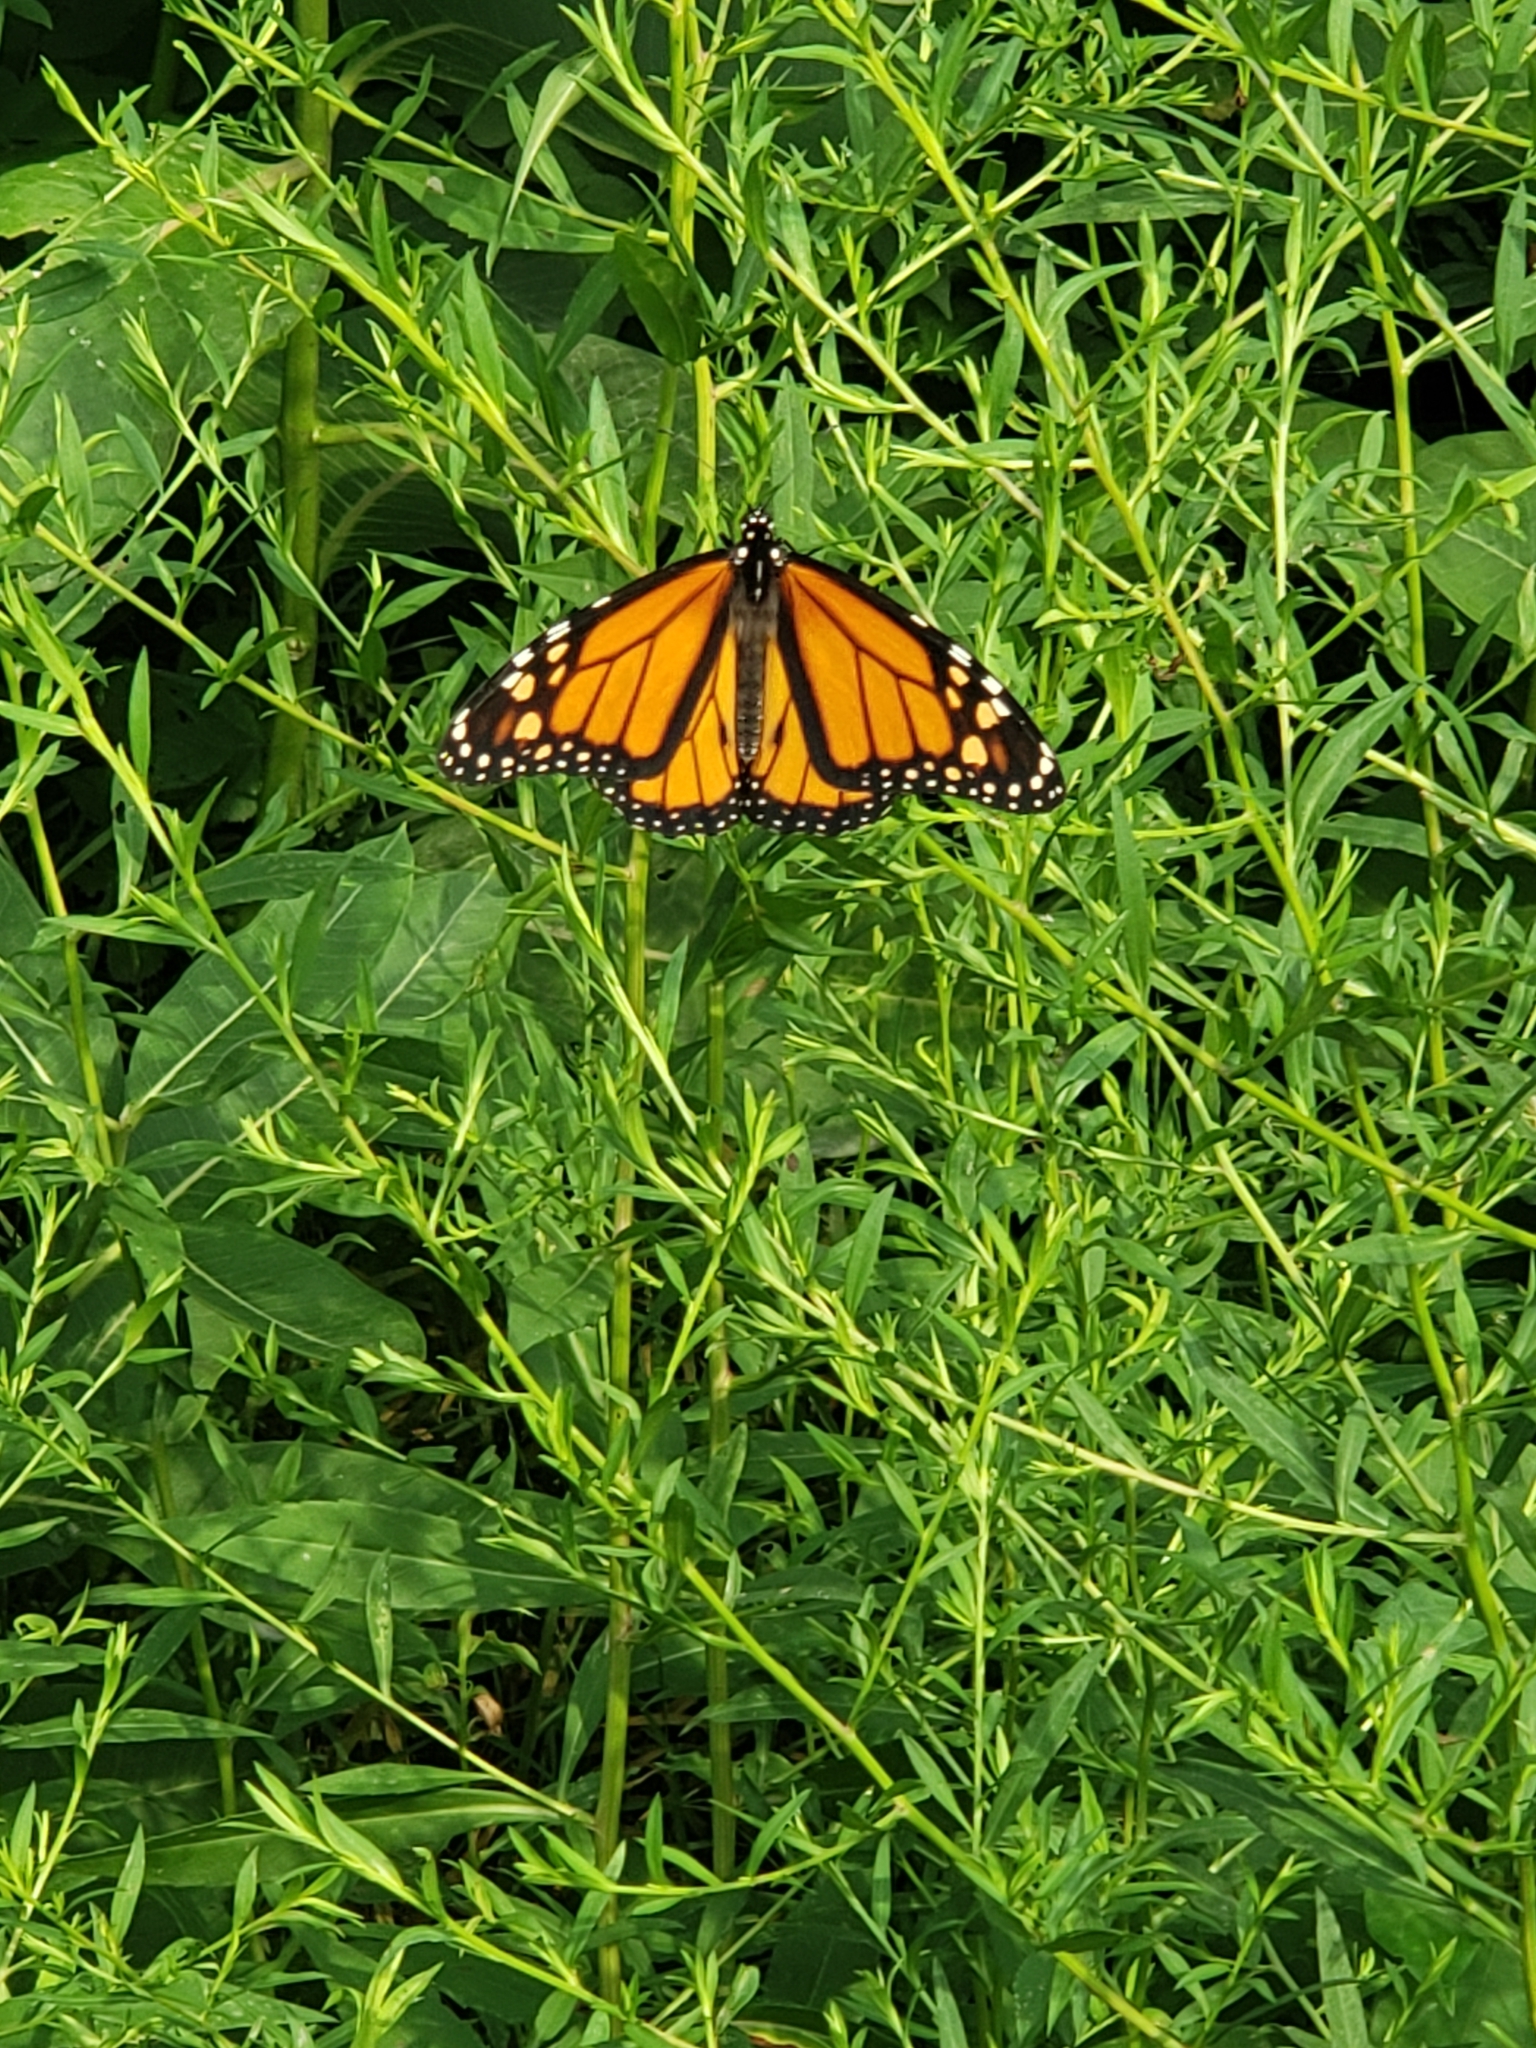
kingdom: Animalia
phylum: Arthropoda
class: Insecta
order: Lepidoptera
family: Nymphalidae
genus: Danaus
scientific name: Danaus plexippus
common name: Monarch
